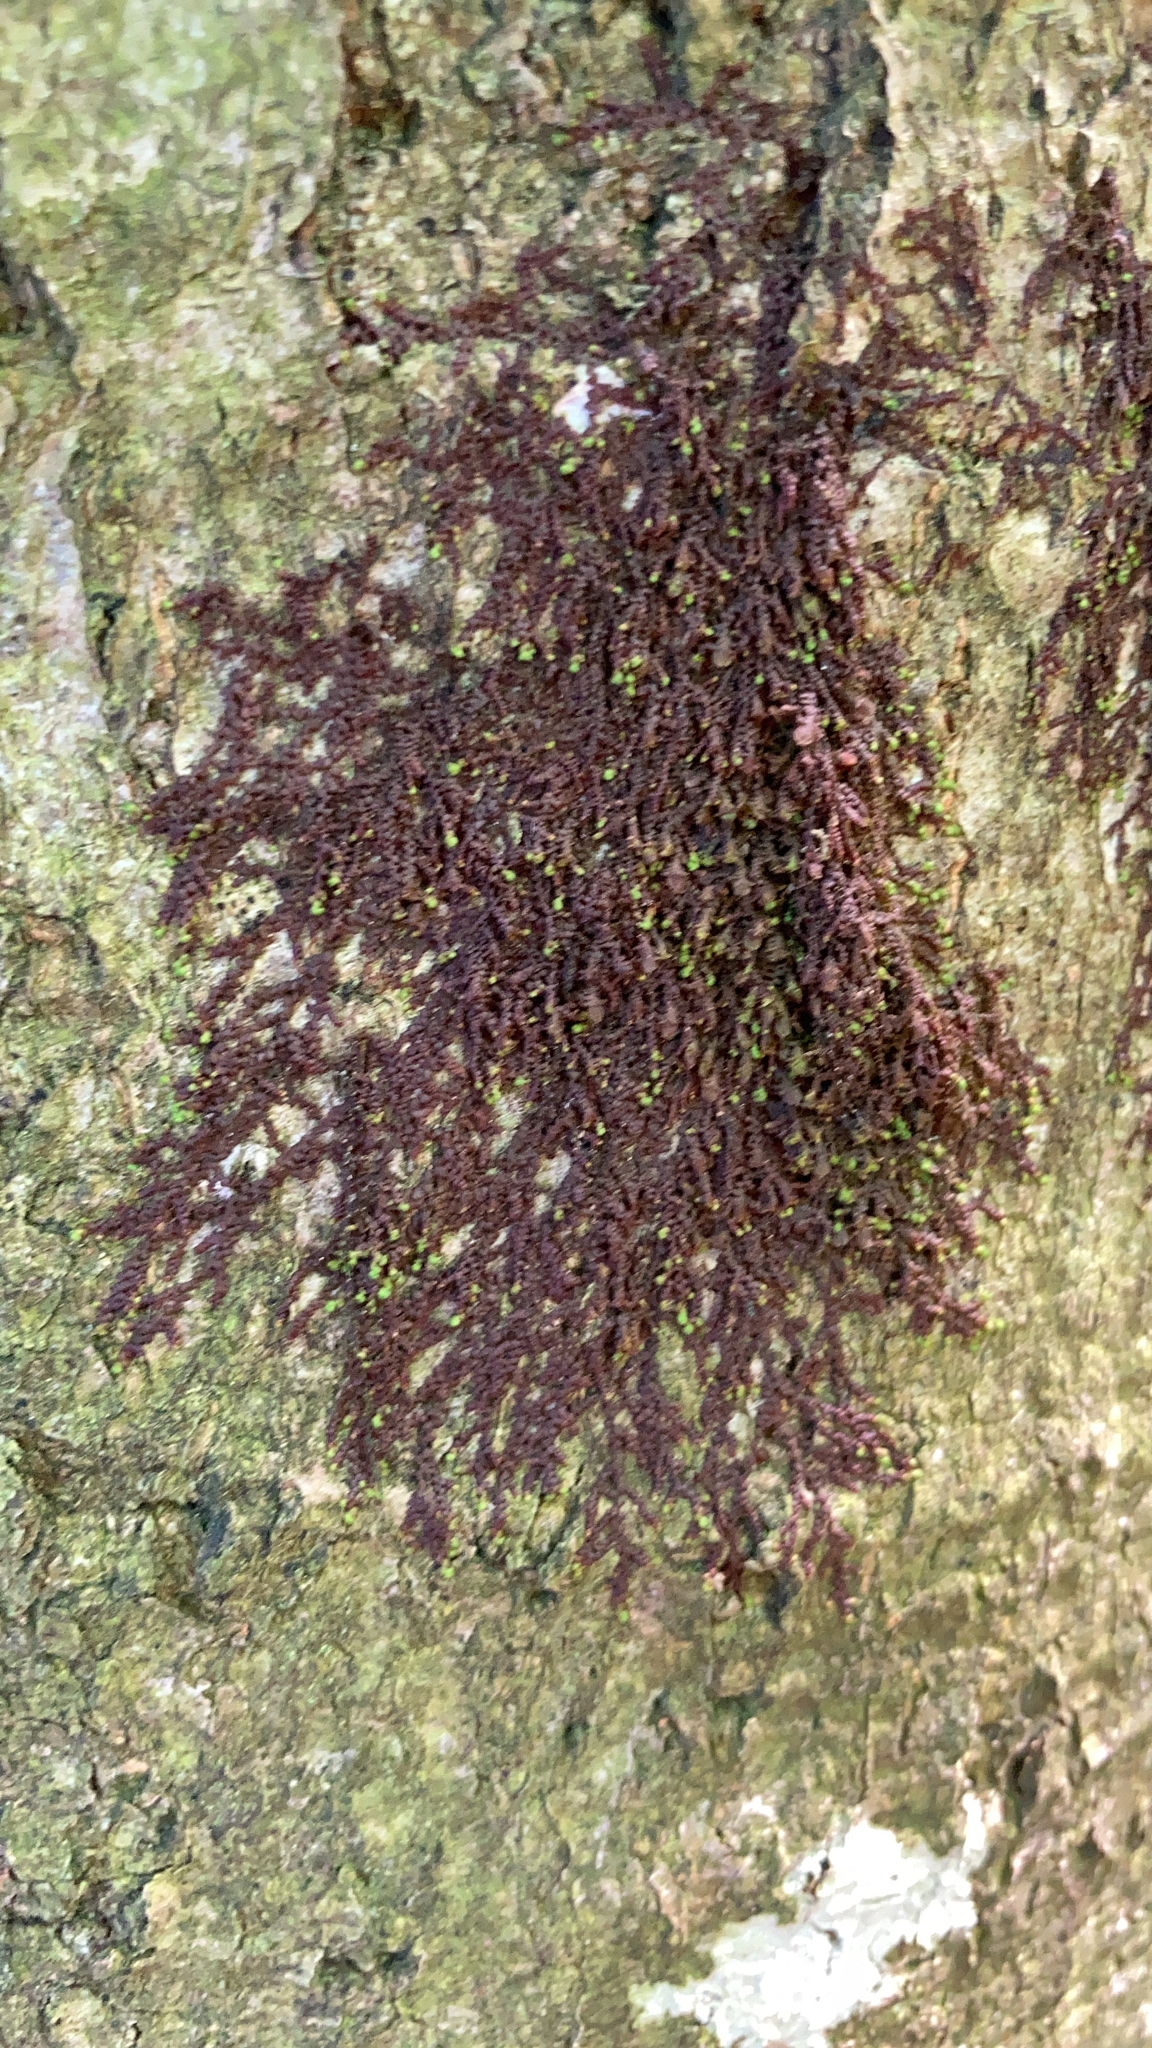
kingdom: Plantae
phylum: Marchantiophyta
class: Jungermanniopsida
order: Porellales
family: Frullaniaceae
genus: Frullania
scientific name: Frullania dilatata
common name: Dilated scalewort
